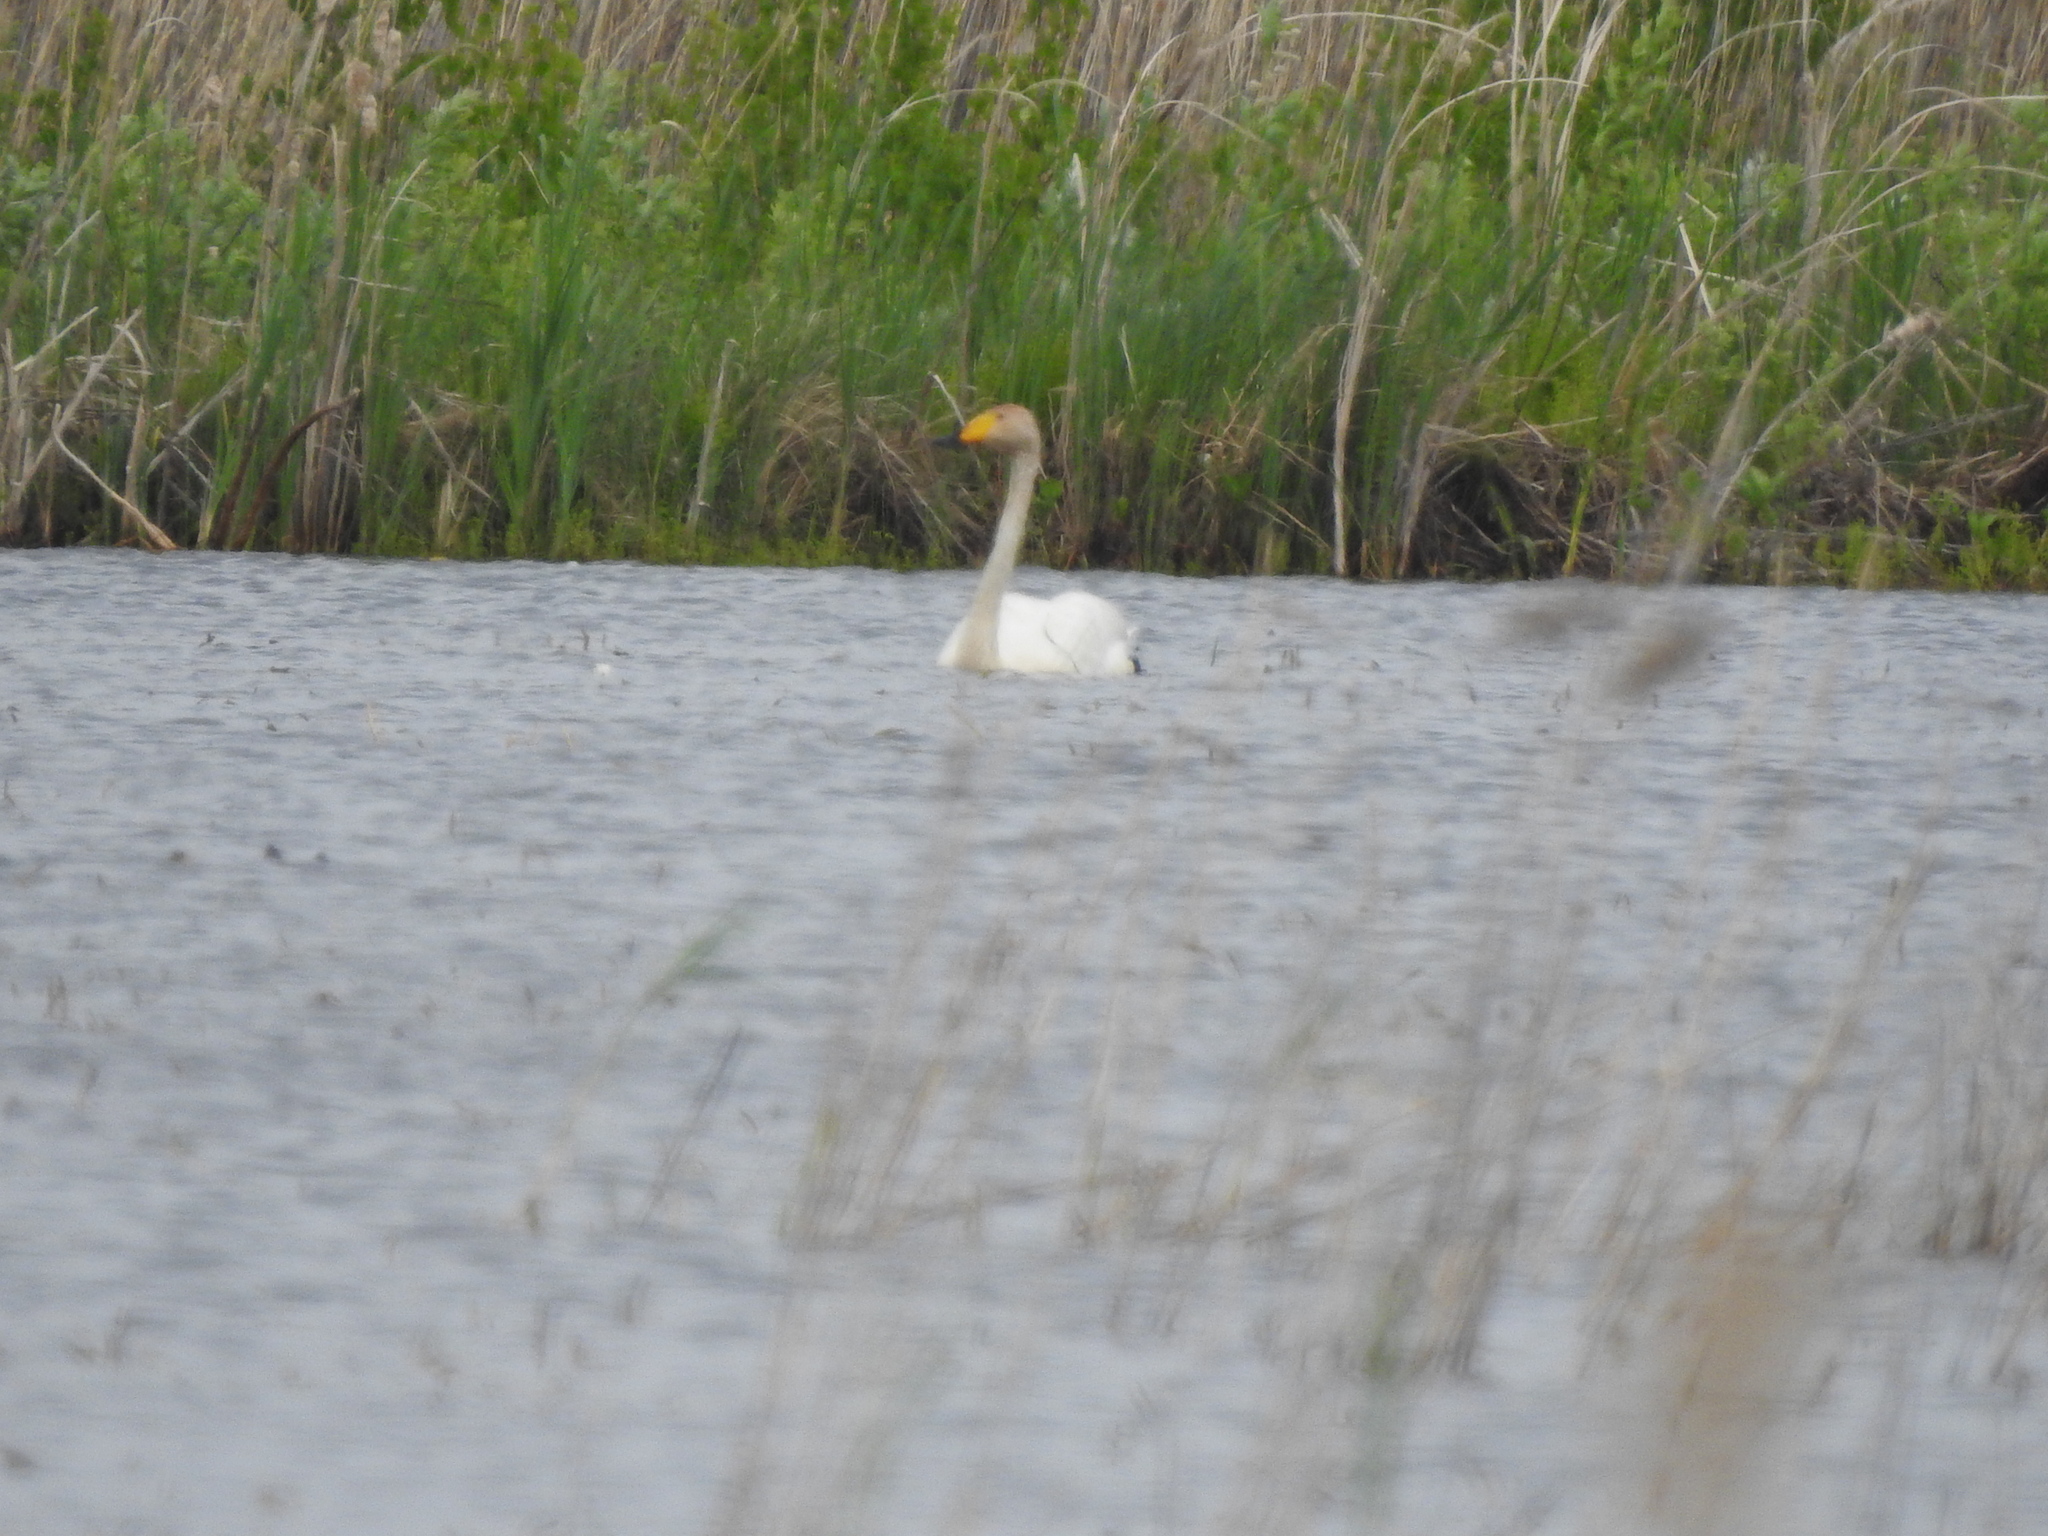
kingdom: Animalia
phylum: Chordata
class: Aves
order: Anseriformes
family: Anatidae
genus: Cygnus
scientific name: Cygnus cygnus
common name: Whooper swan
